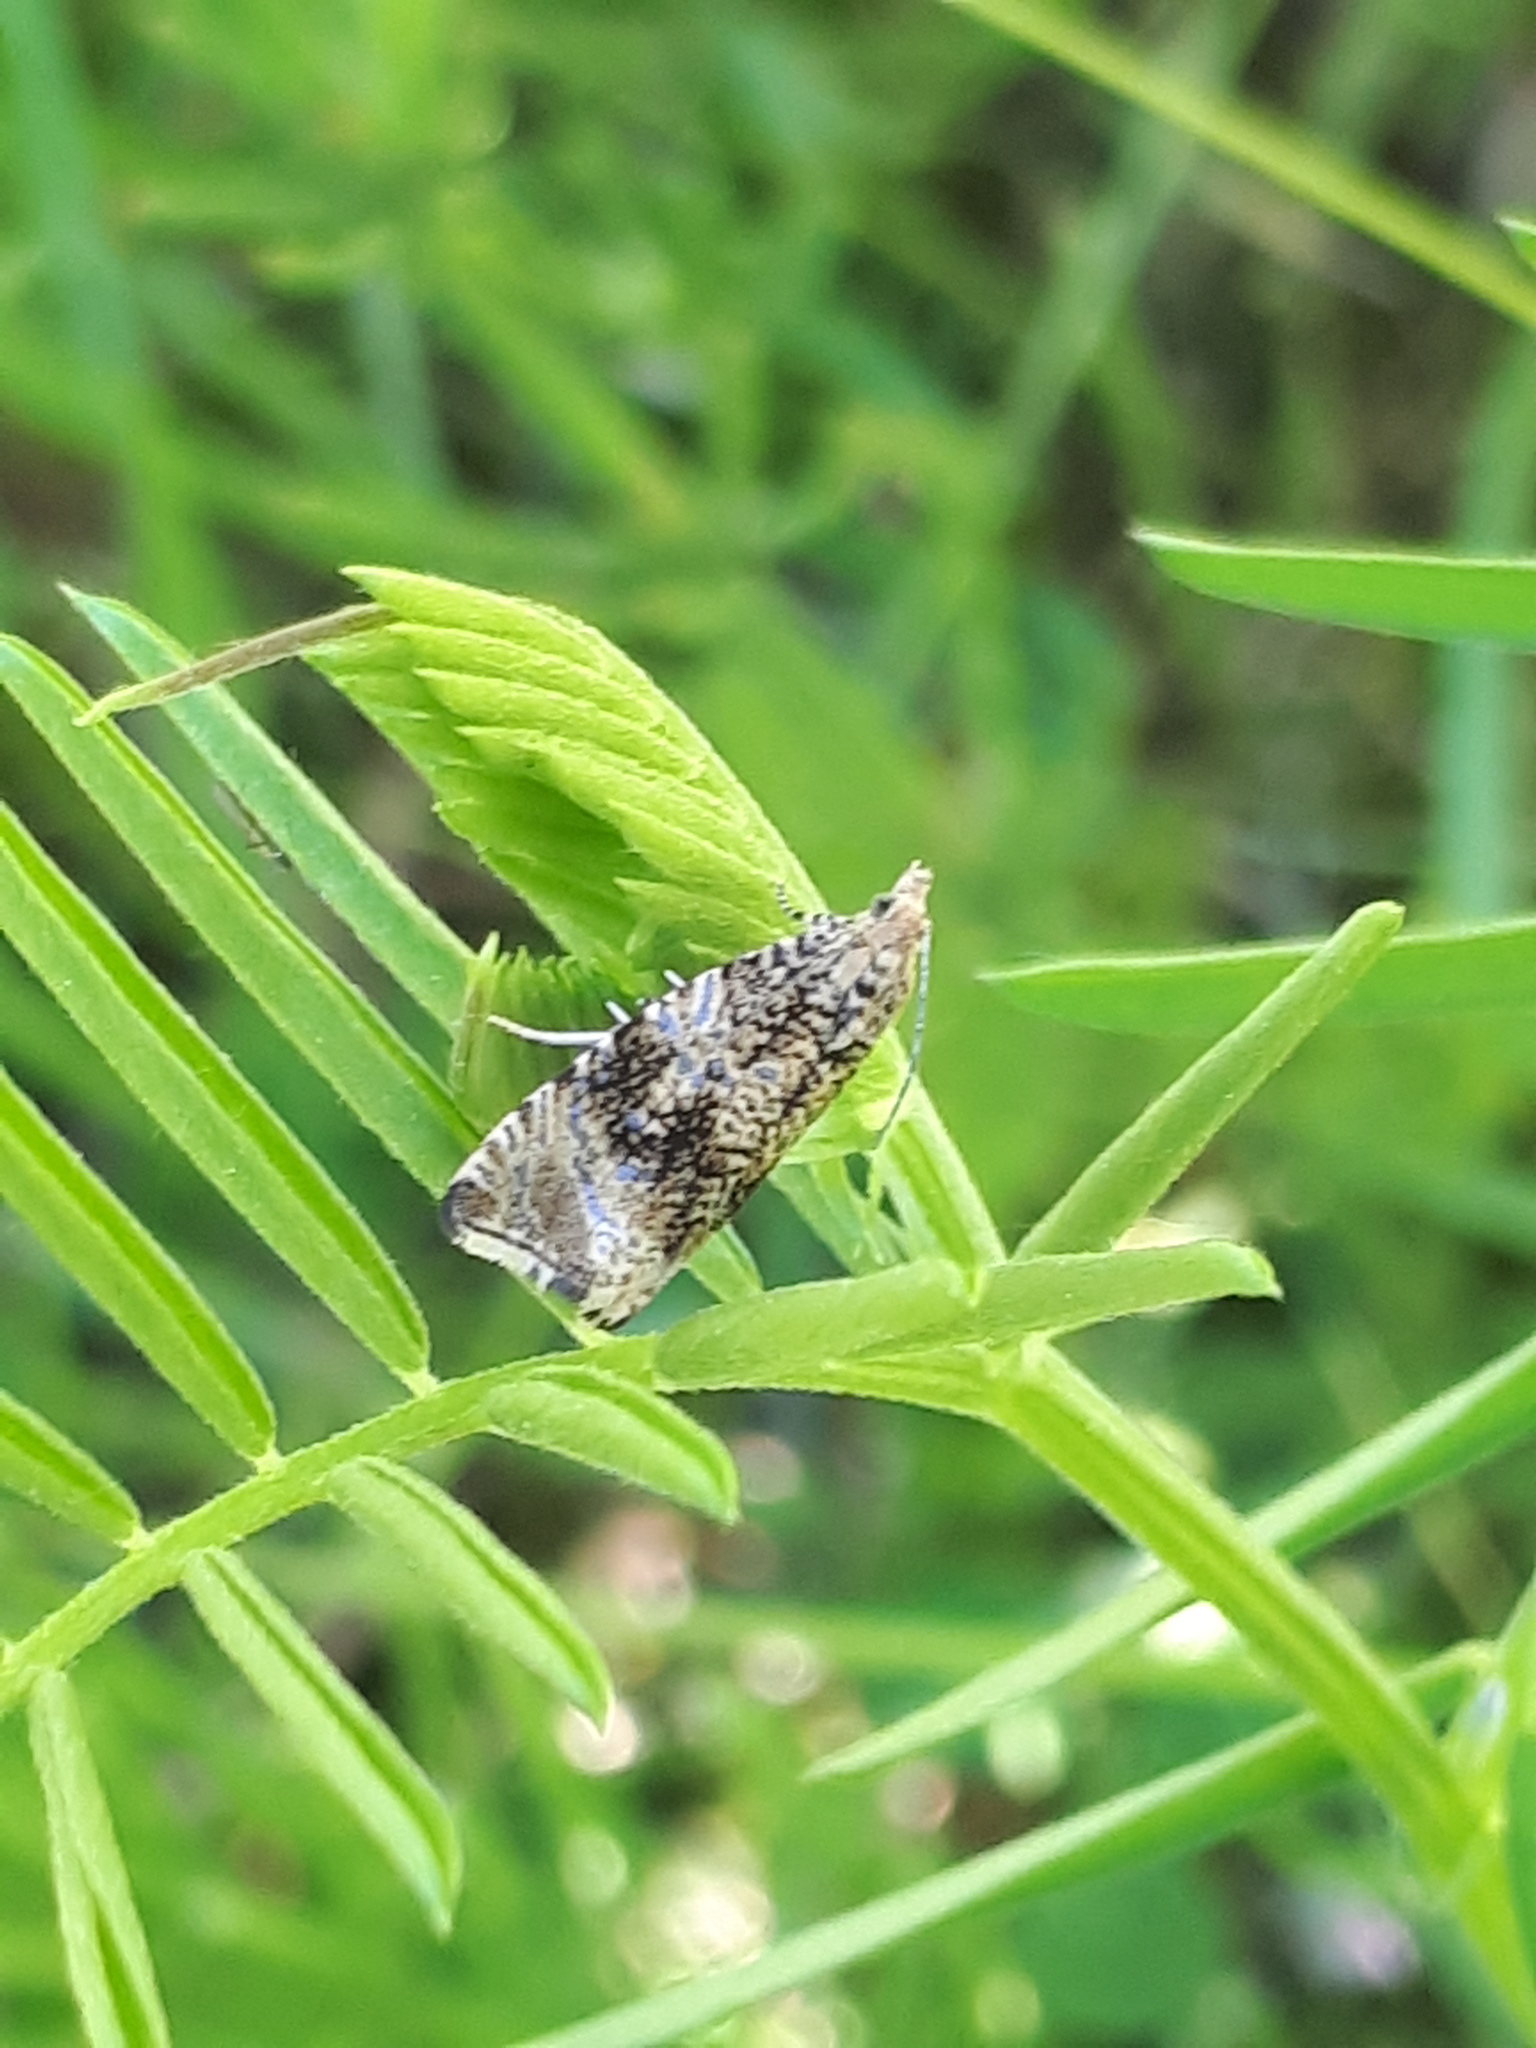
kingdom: Animalia
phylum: Arthropoda
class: Insecta
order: Lepidoptera
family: Tortricidae
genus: Syricoris
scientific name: Syricoris lacunana
